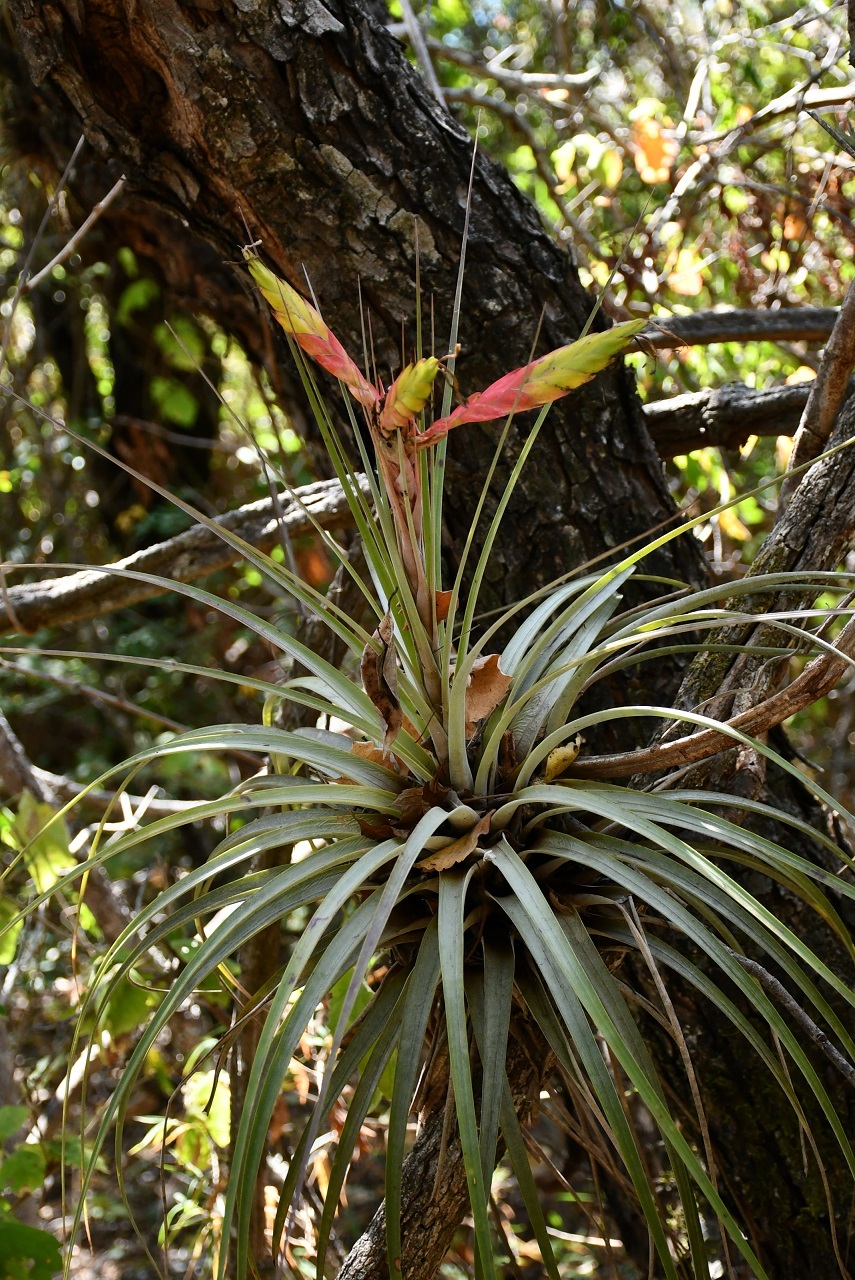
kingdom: Plantae
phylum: Tracheophyta
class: Liliopsida
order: Poales
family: Bromeliaceae
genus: Tillandsia
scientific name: Tillandsia fasciculata
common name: Giant airplant
